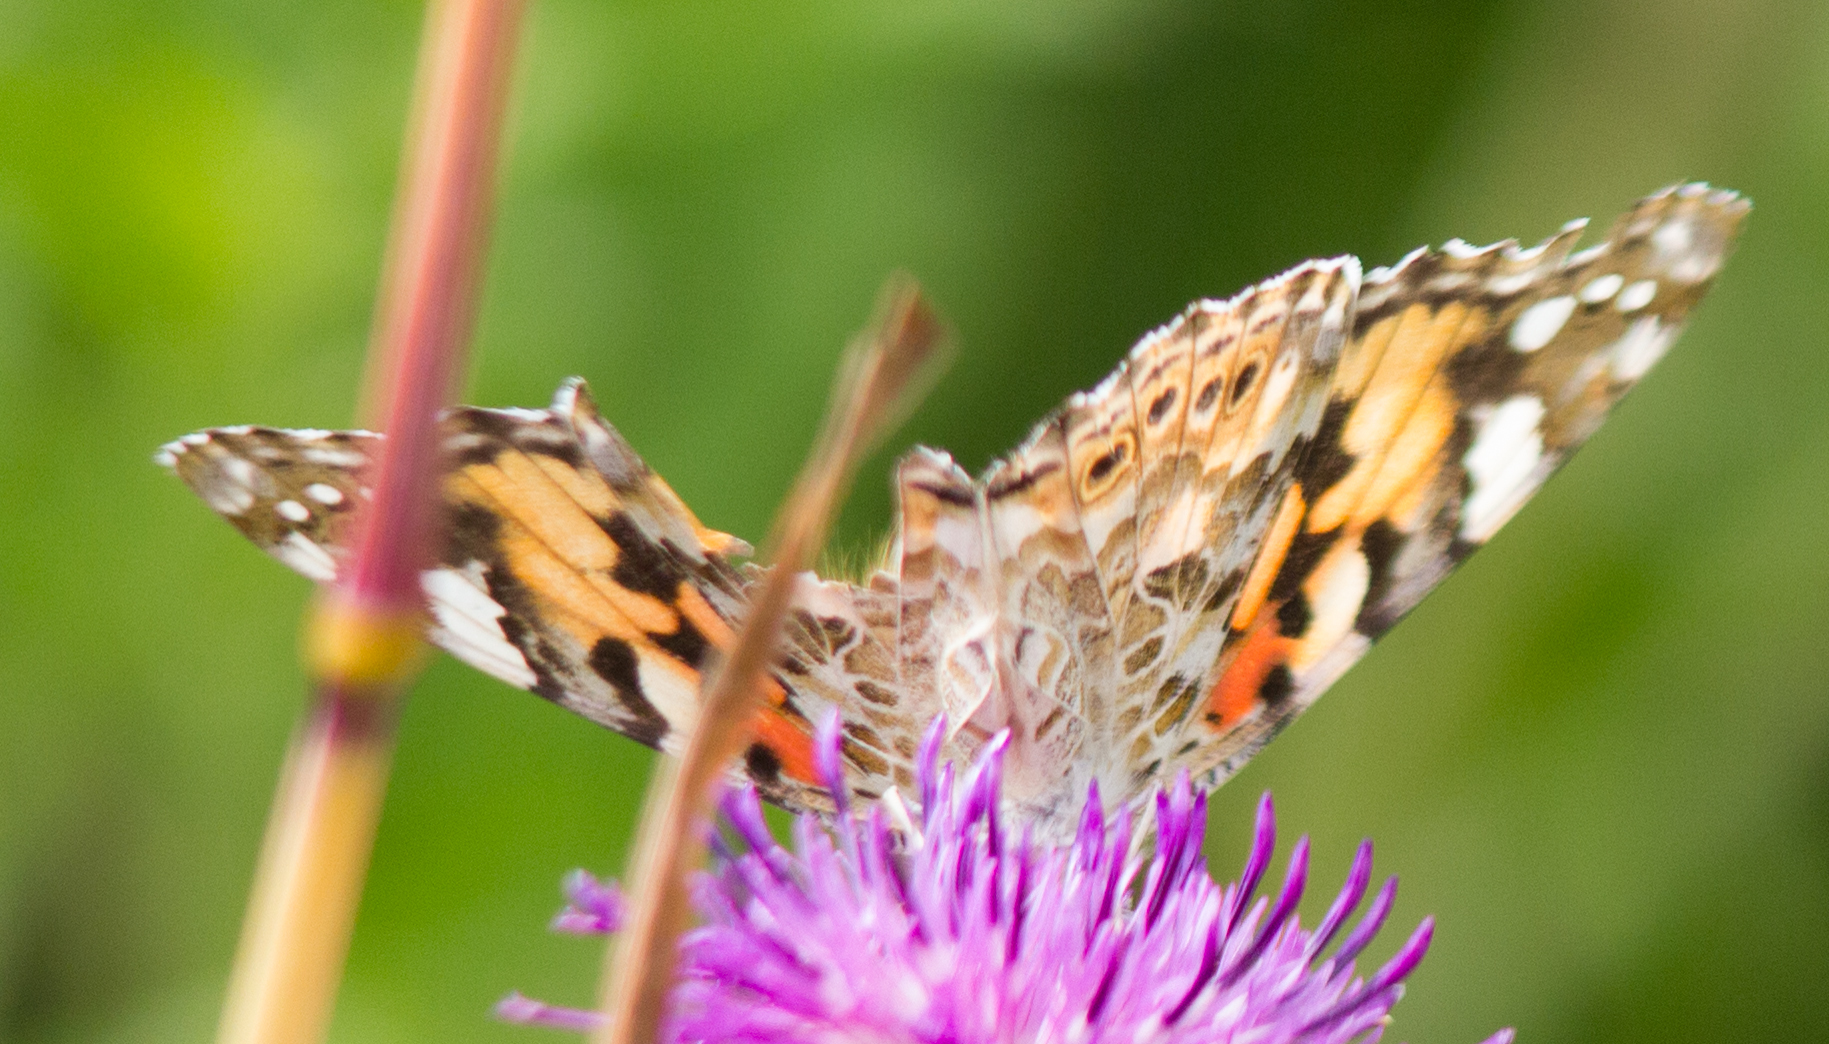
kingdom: Animalia
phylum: Arthropoda
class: Insecta
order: Lepidoptera
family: Nymphalidae
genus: Vanessa
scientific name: Vanessa cardui
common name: Painted lady
